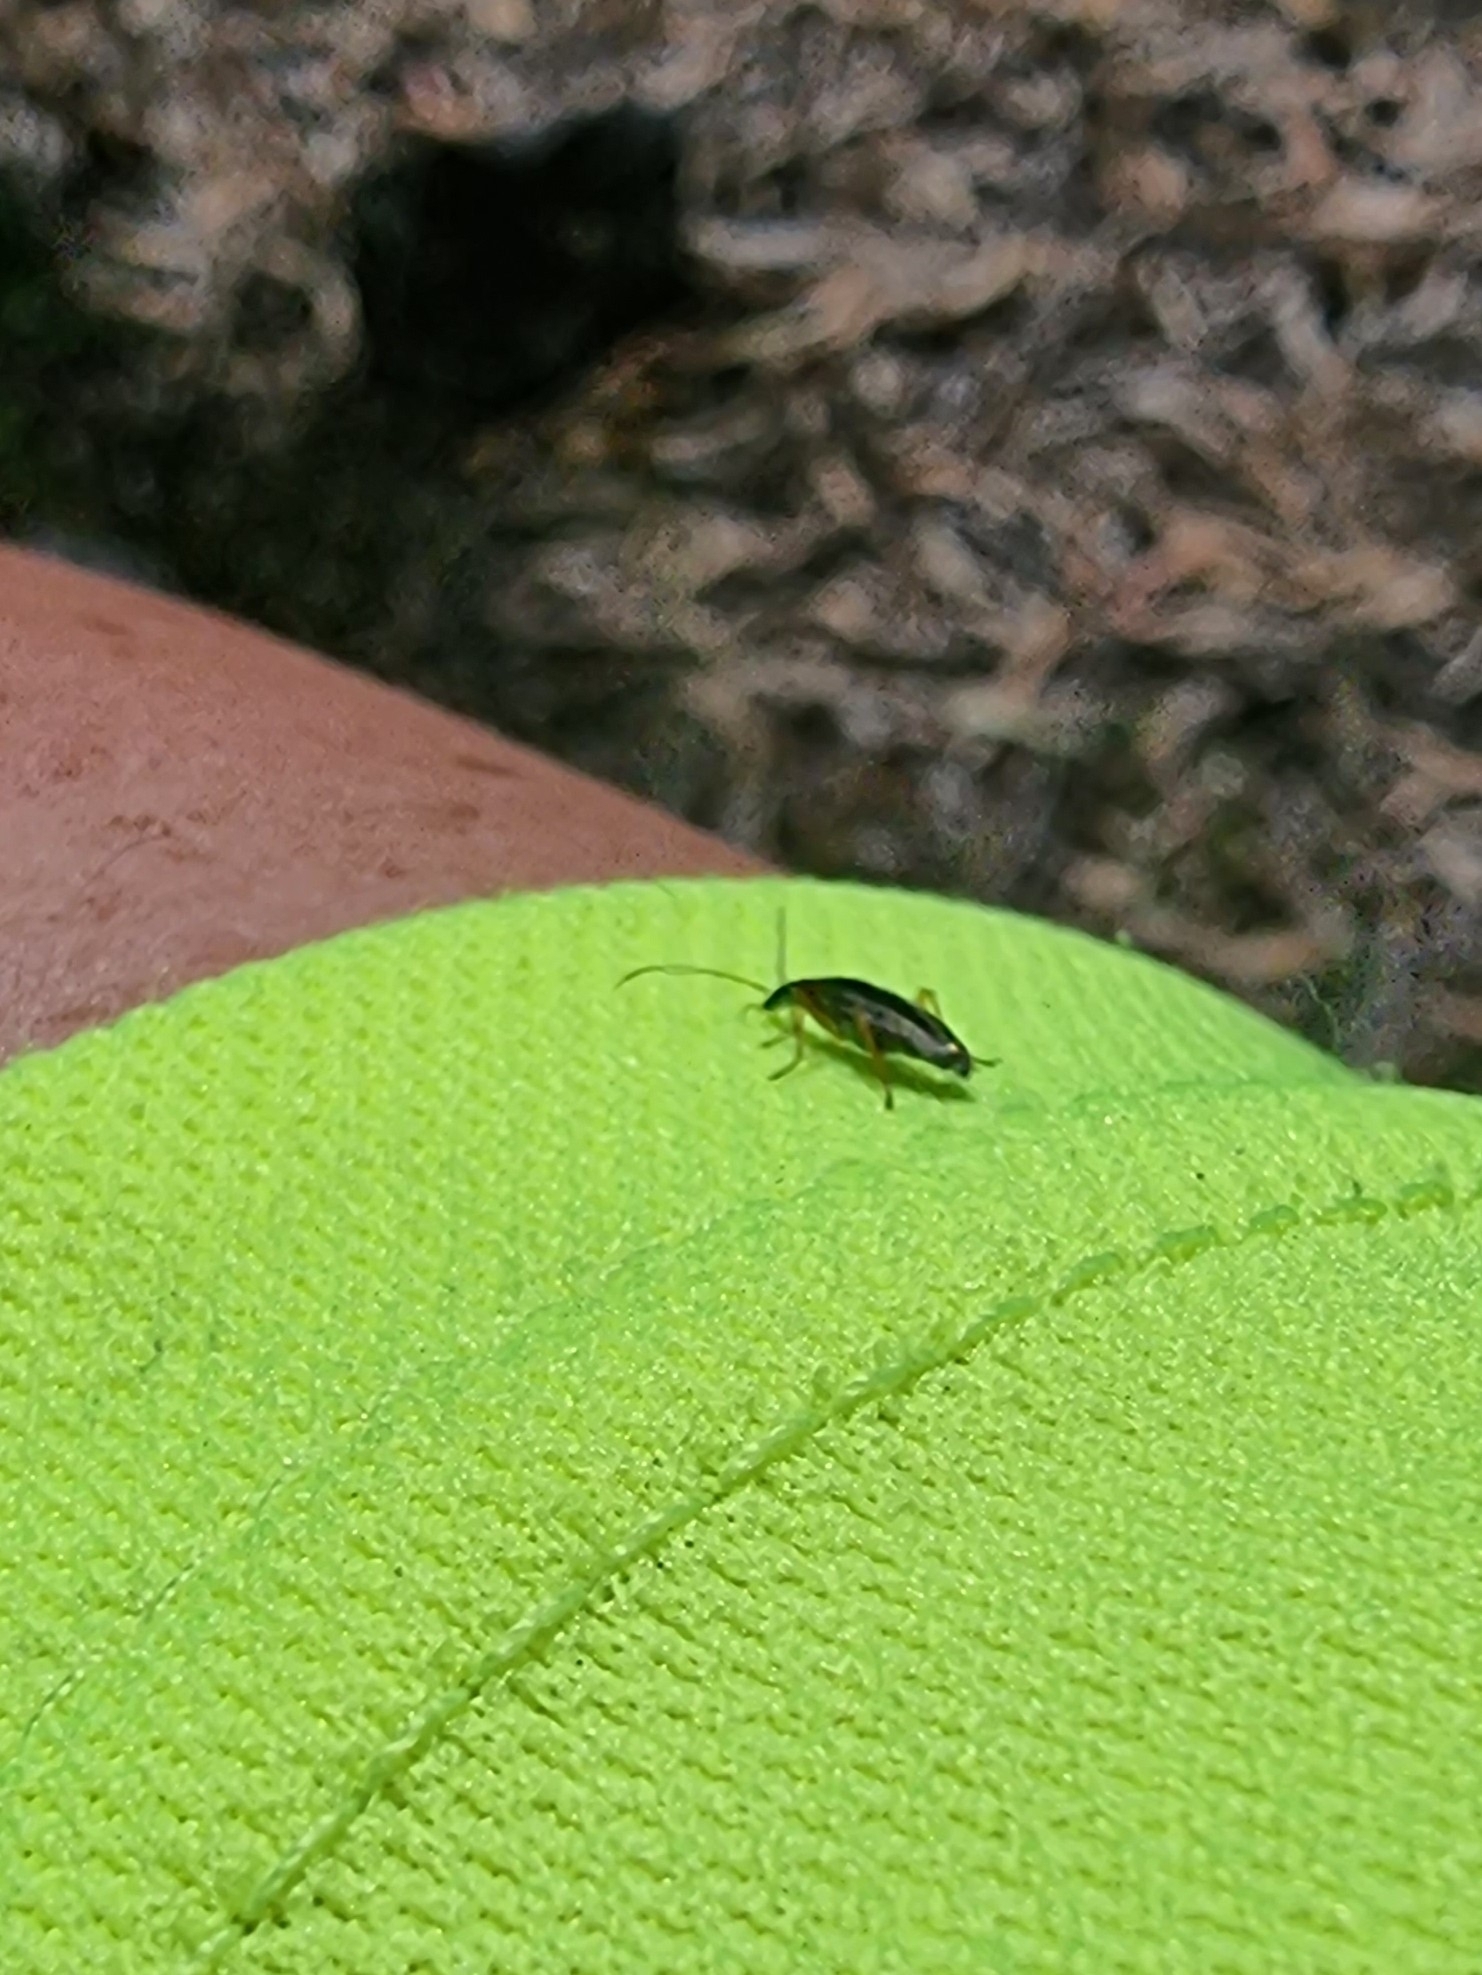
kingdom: Animalia
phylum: Arthropoda
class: Insecta
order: Coleoptera
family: Oedemeridae
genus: Stenostoma
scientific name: Stenostoma lowei
